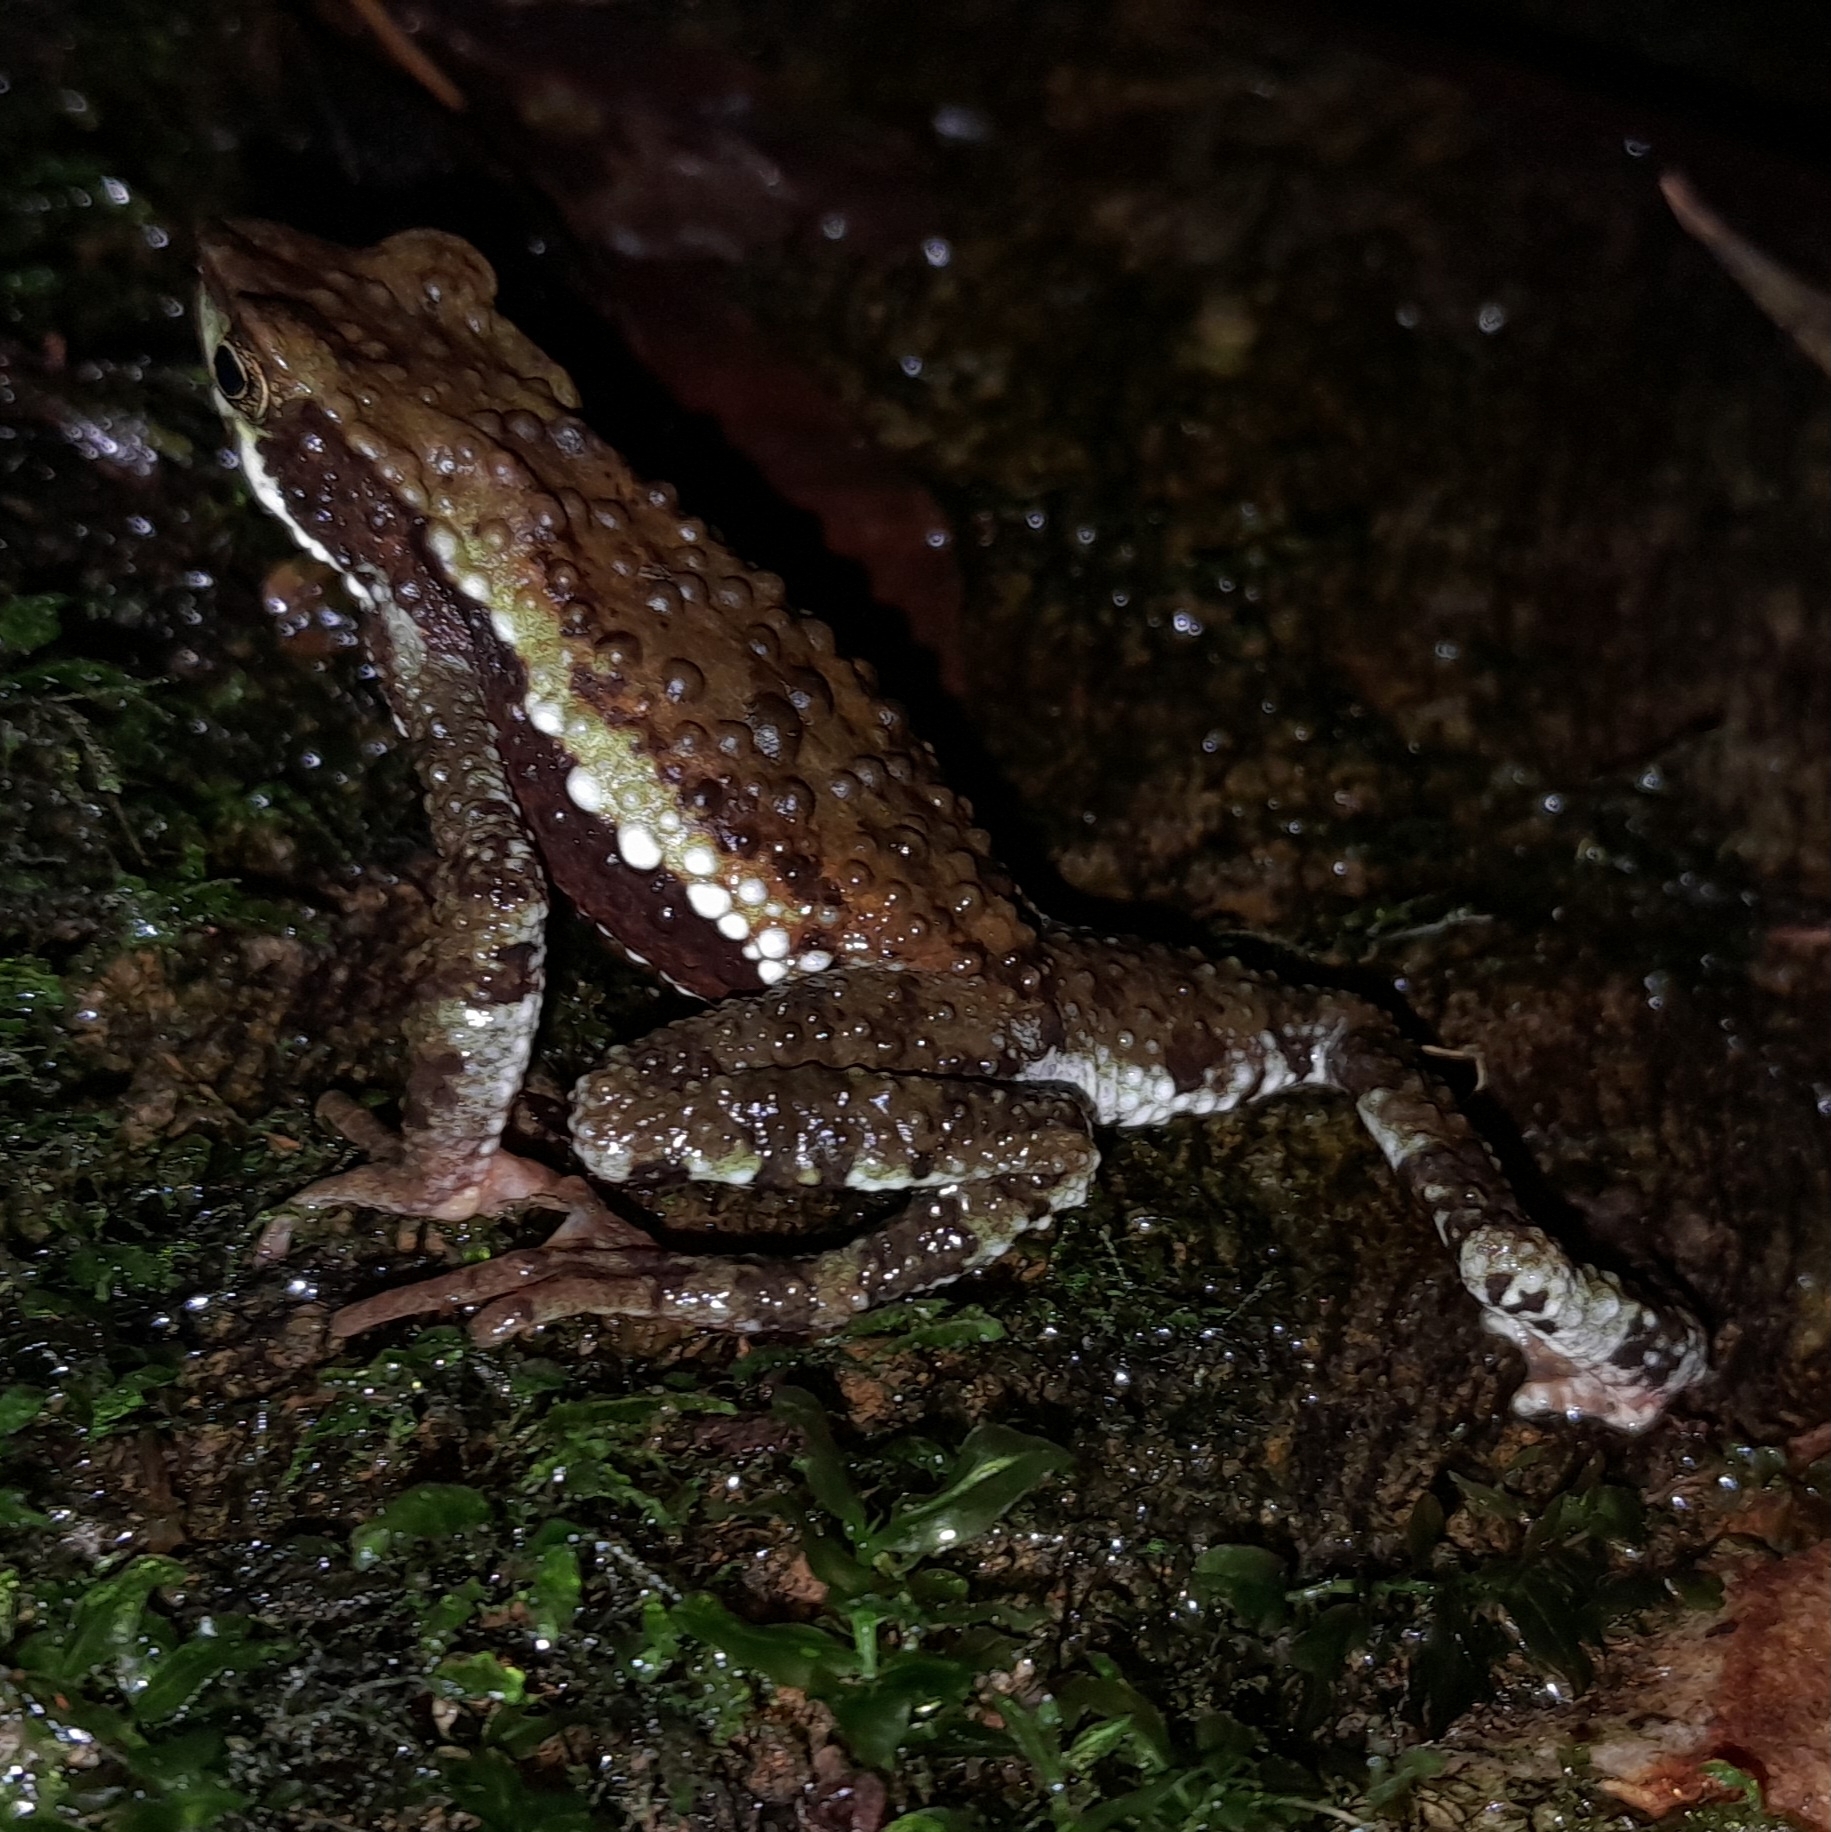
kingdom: Animalia
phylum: Chordata
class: Amphibia
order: Anura
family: Bufonidae
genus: Atelopus
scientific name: Atelopus laetissimus
